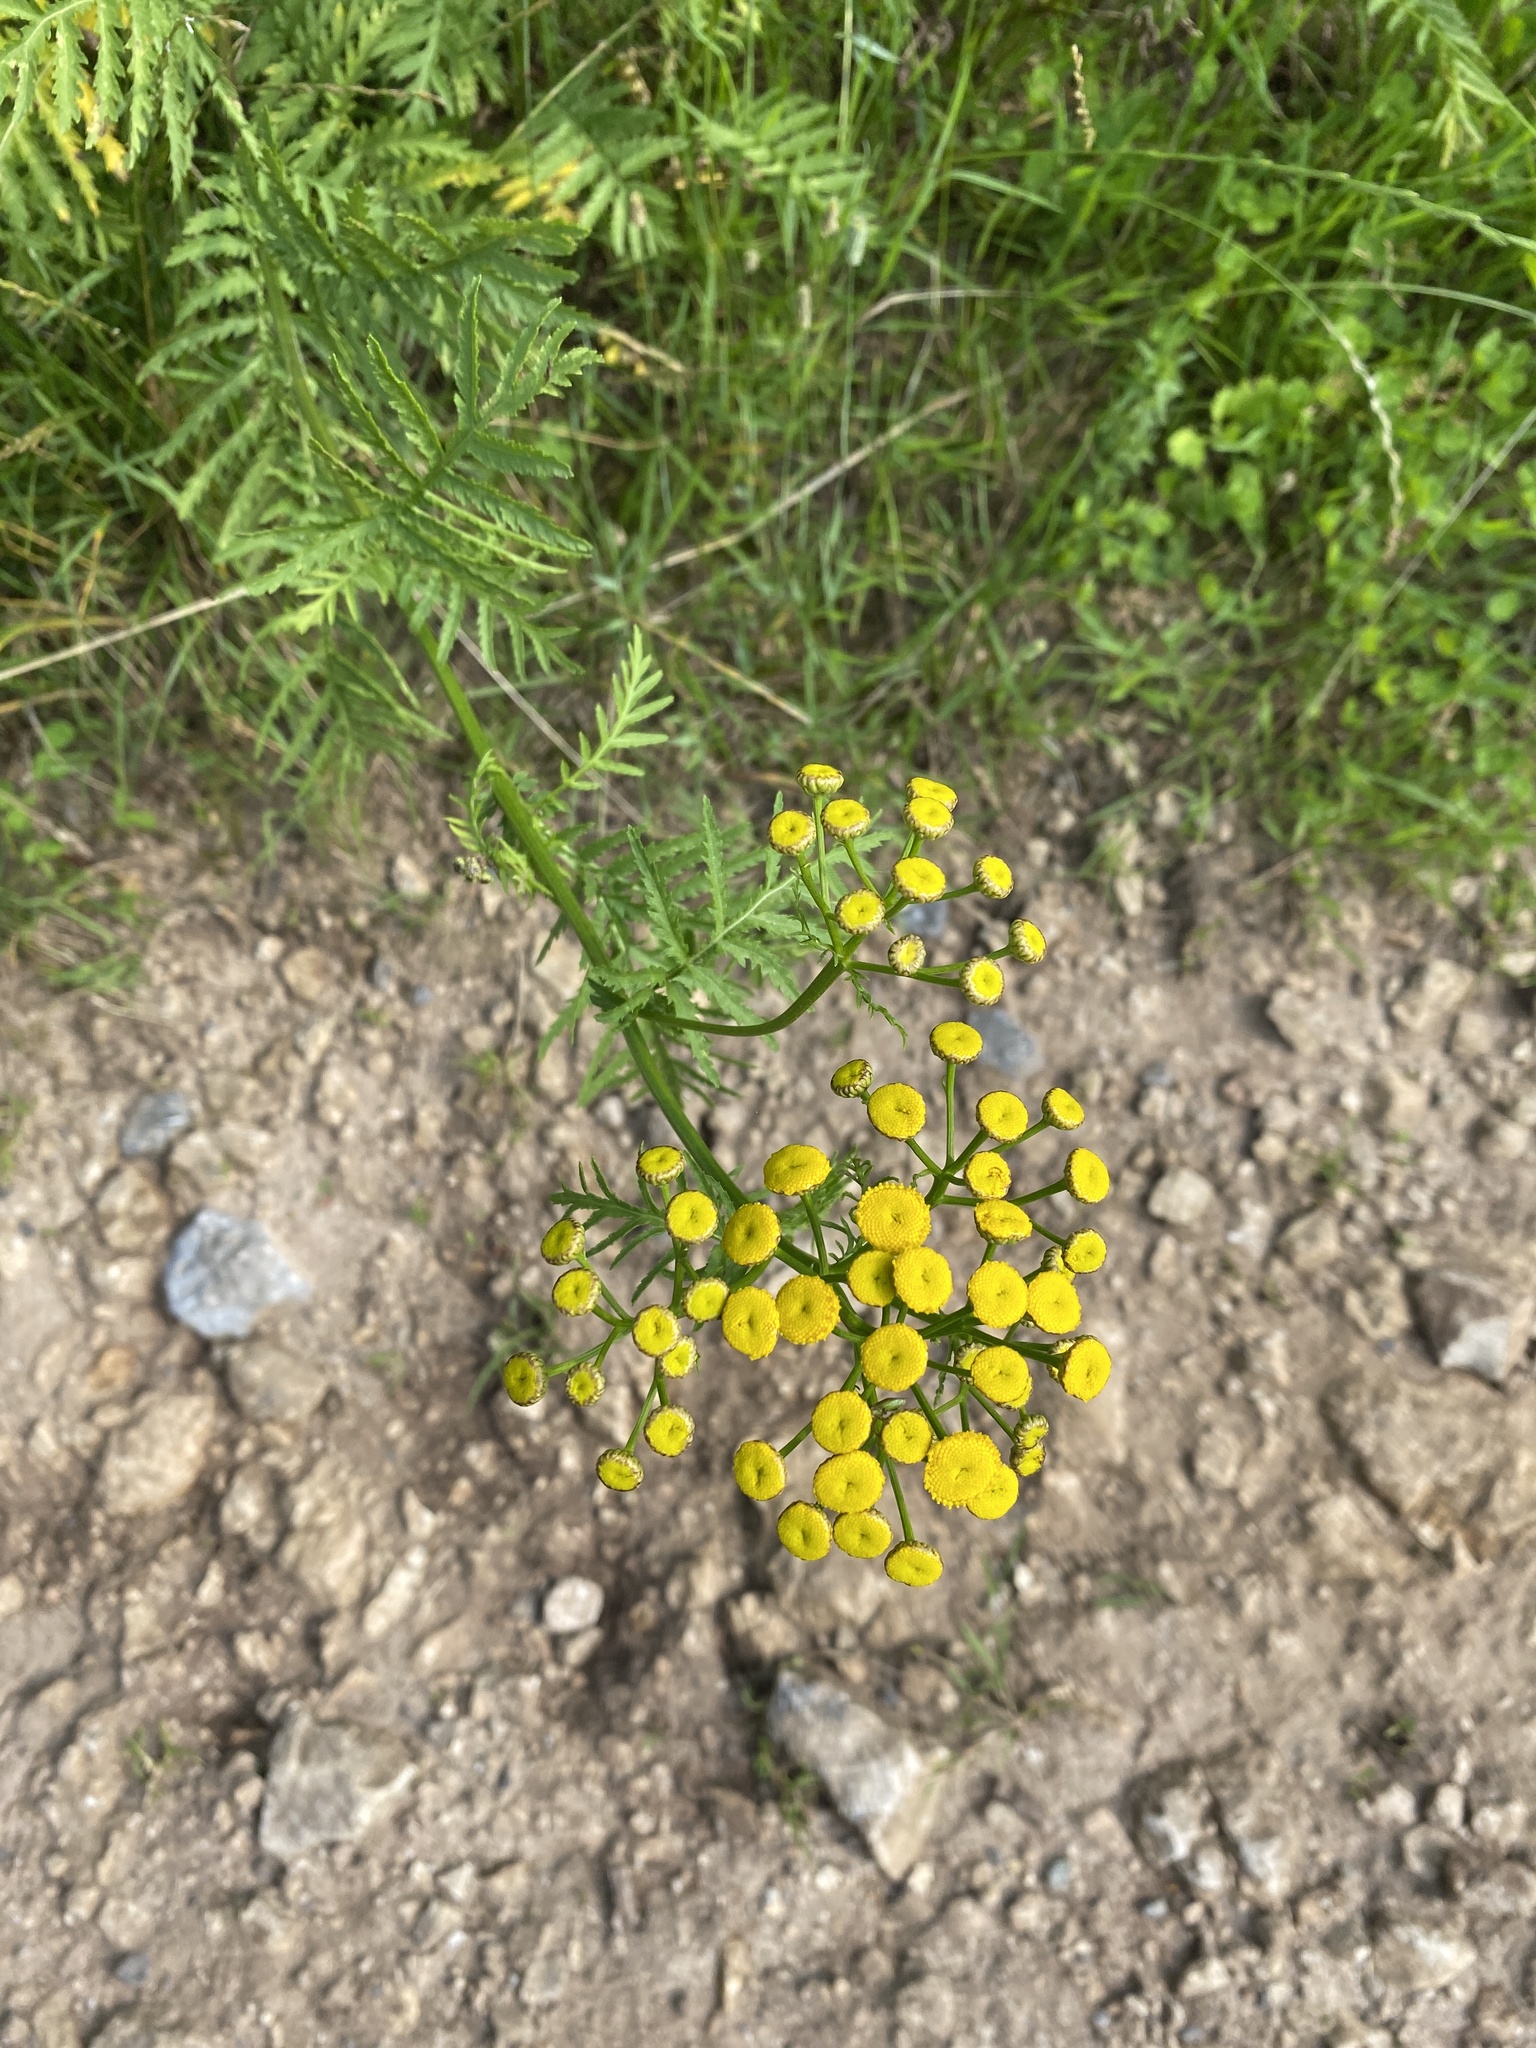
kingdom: Plantae
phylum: Tracheophyta
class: Magnoliopsida
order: Asterales
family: Asteraceae
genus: Tanacetum
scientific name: Tanacetum vulgare
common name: Common tansy
